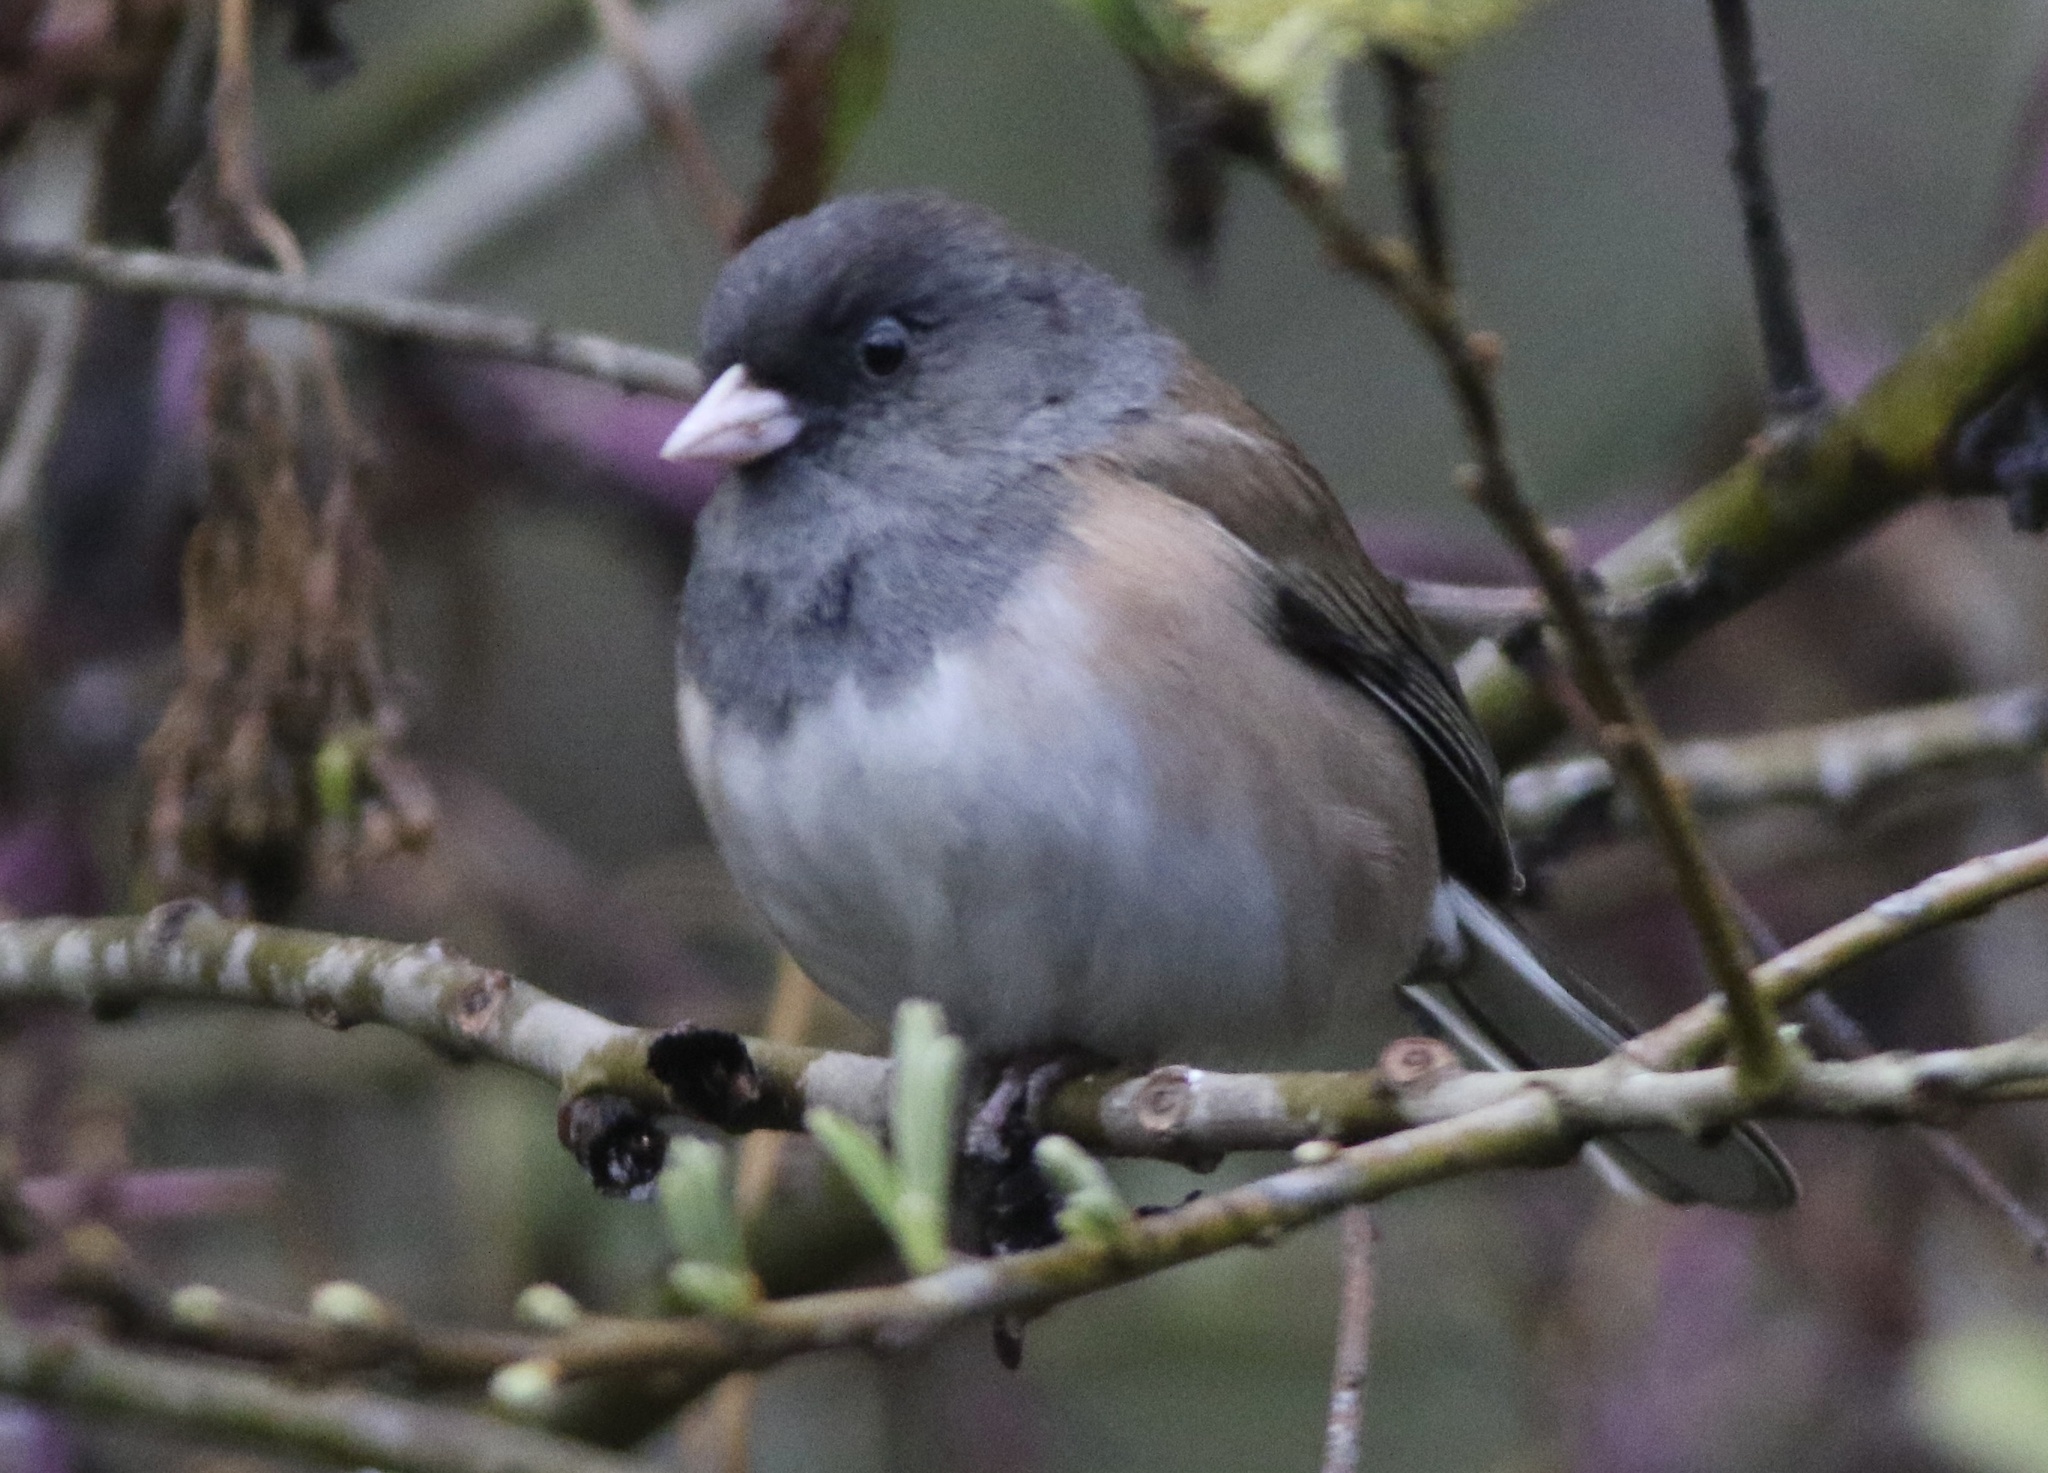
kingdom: Animalia
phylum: Chordata
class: Aves
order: Passeriformes
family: Passerellidae
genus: Junco
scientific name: Junco hyemalis
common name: Dark-eyed junco
